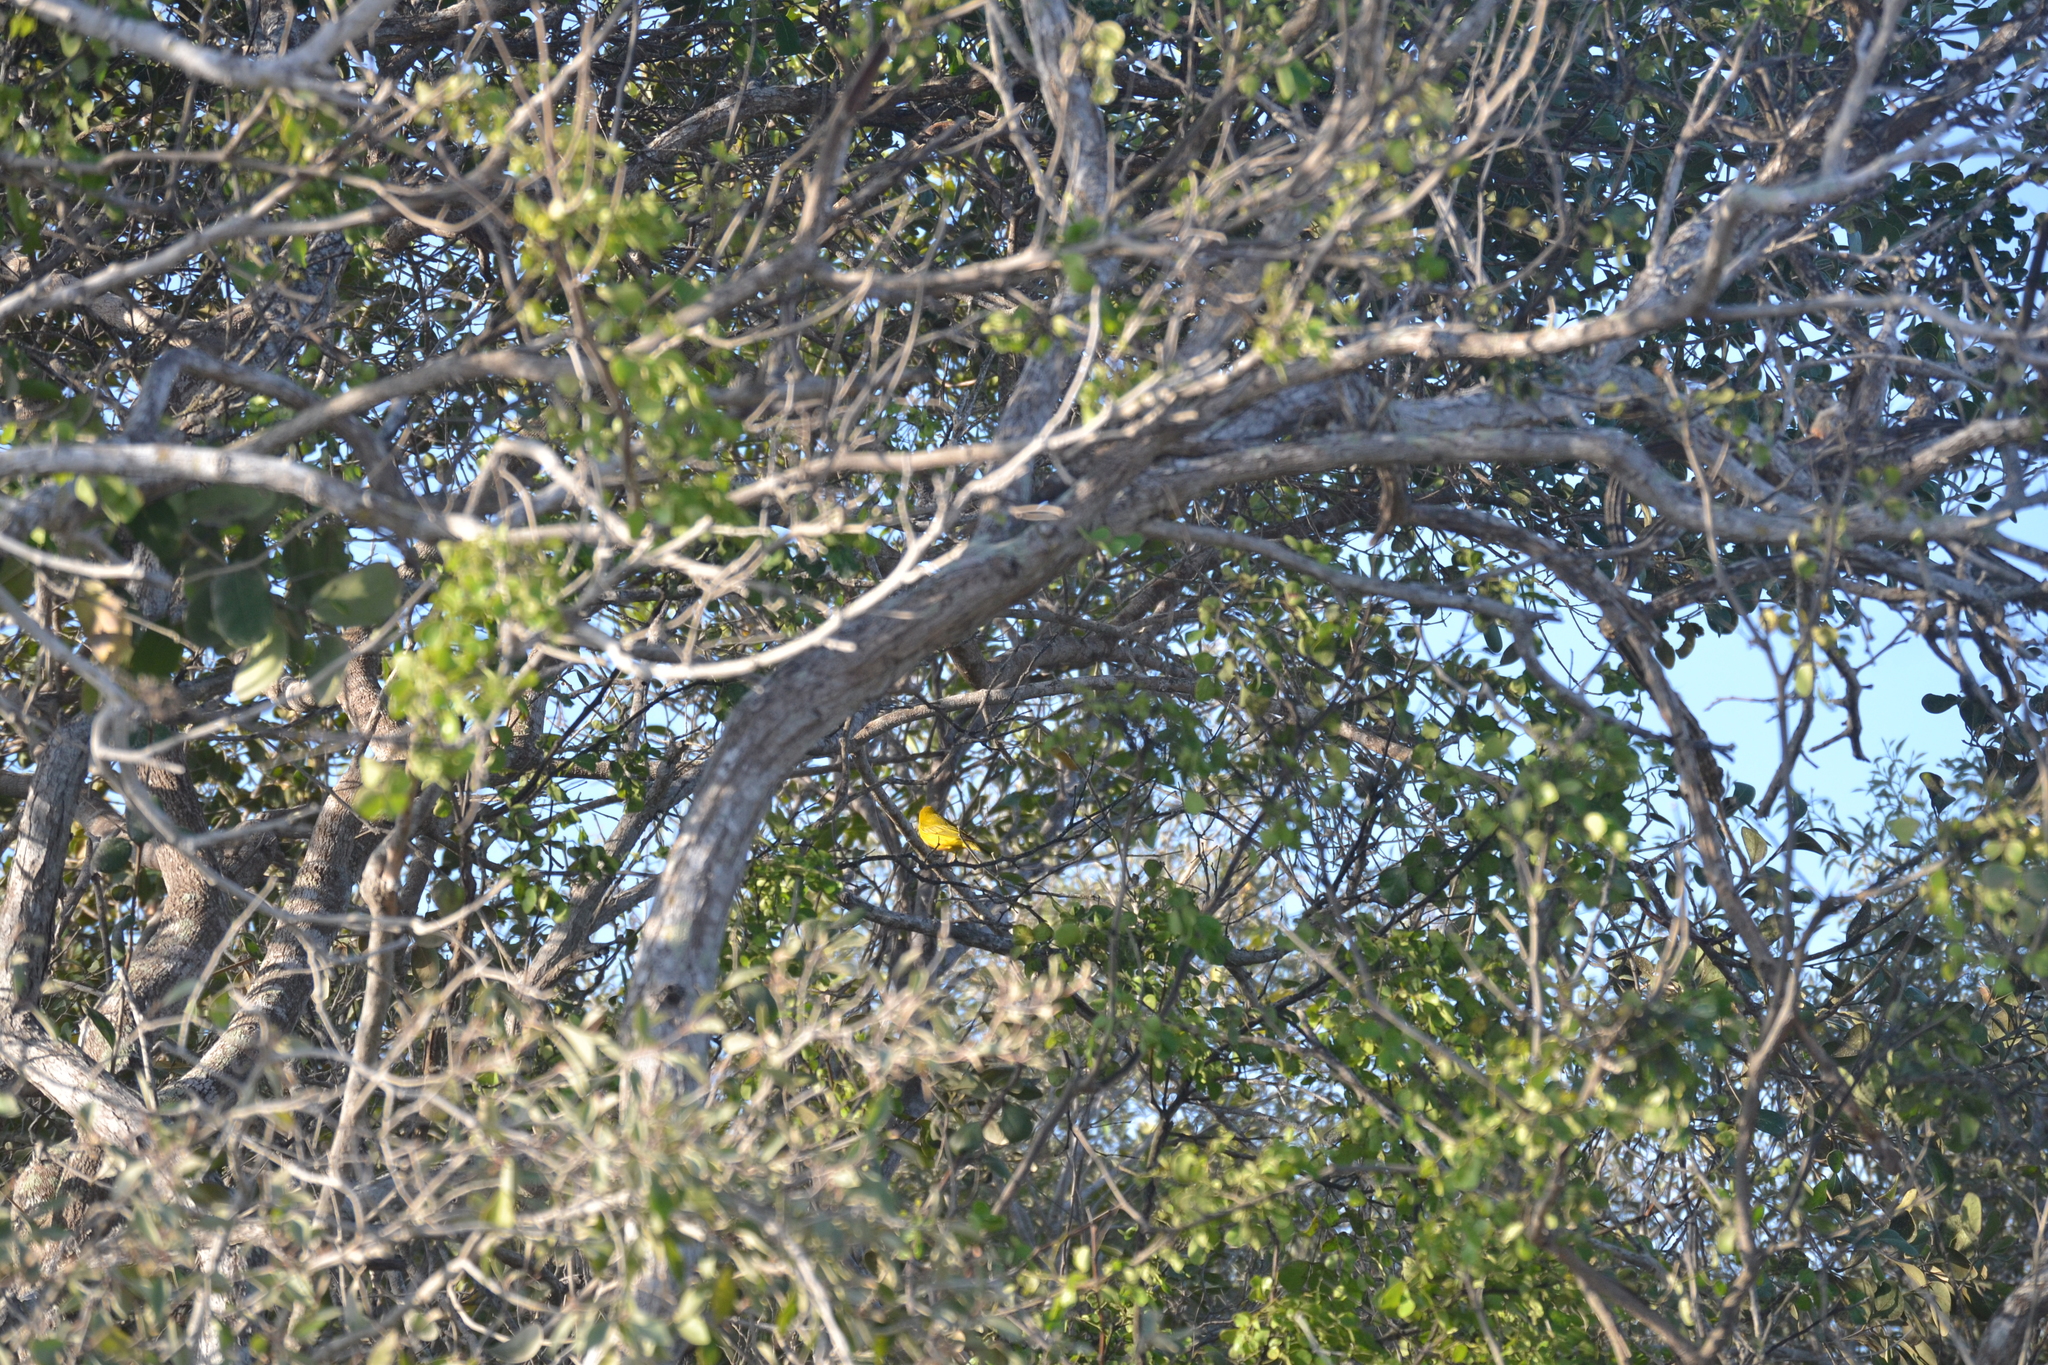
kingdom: Animalia
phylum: Chordata
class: Aves
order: Passeriformes
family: Parulidae
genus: Setophaga
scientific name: Setophaga petechia
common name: Yellow warbler
